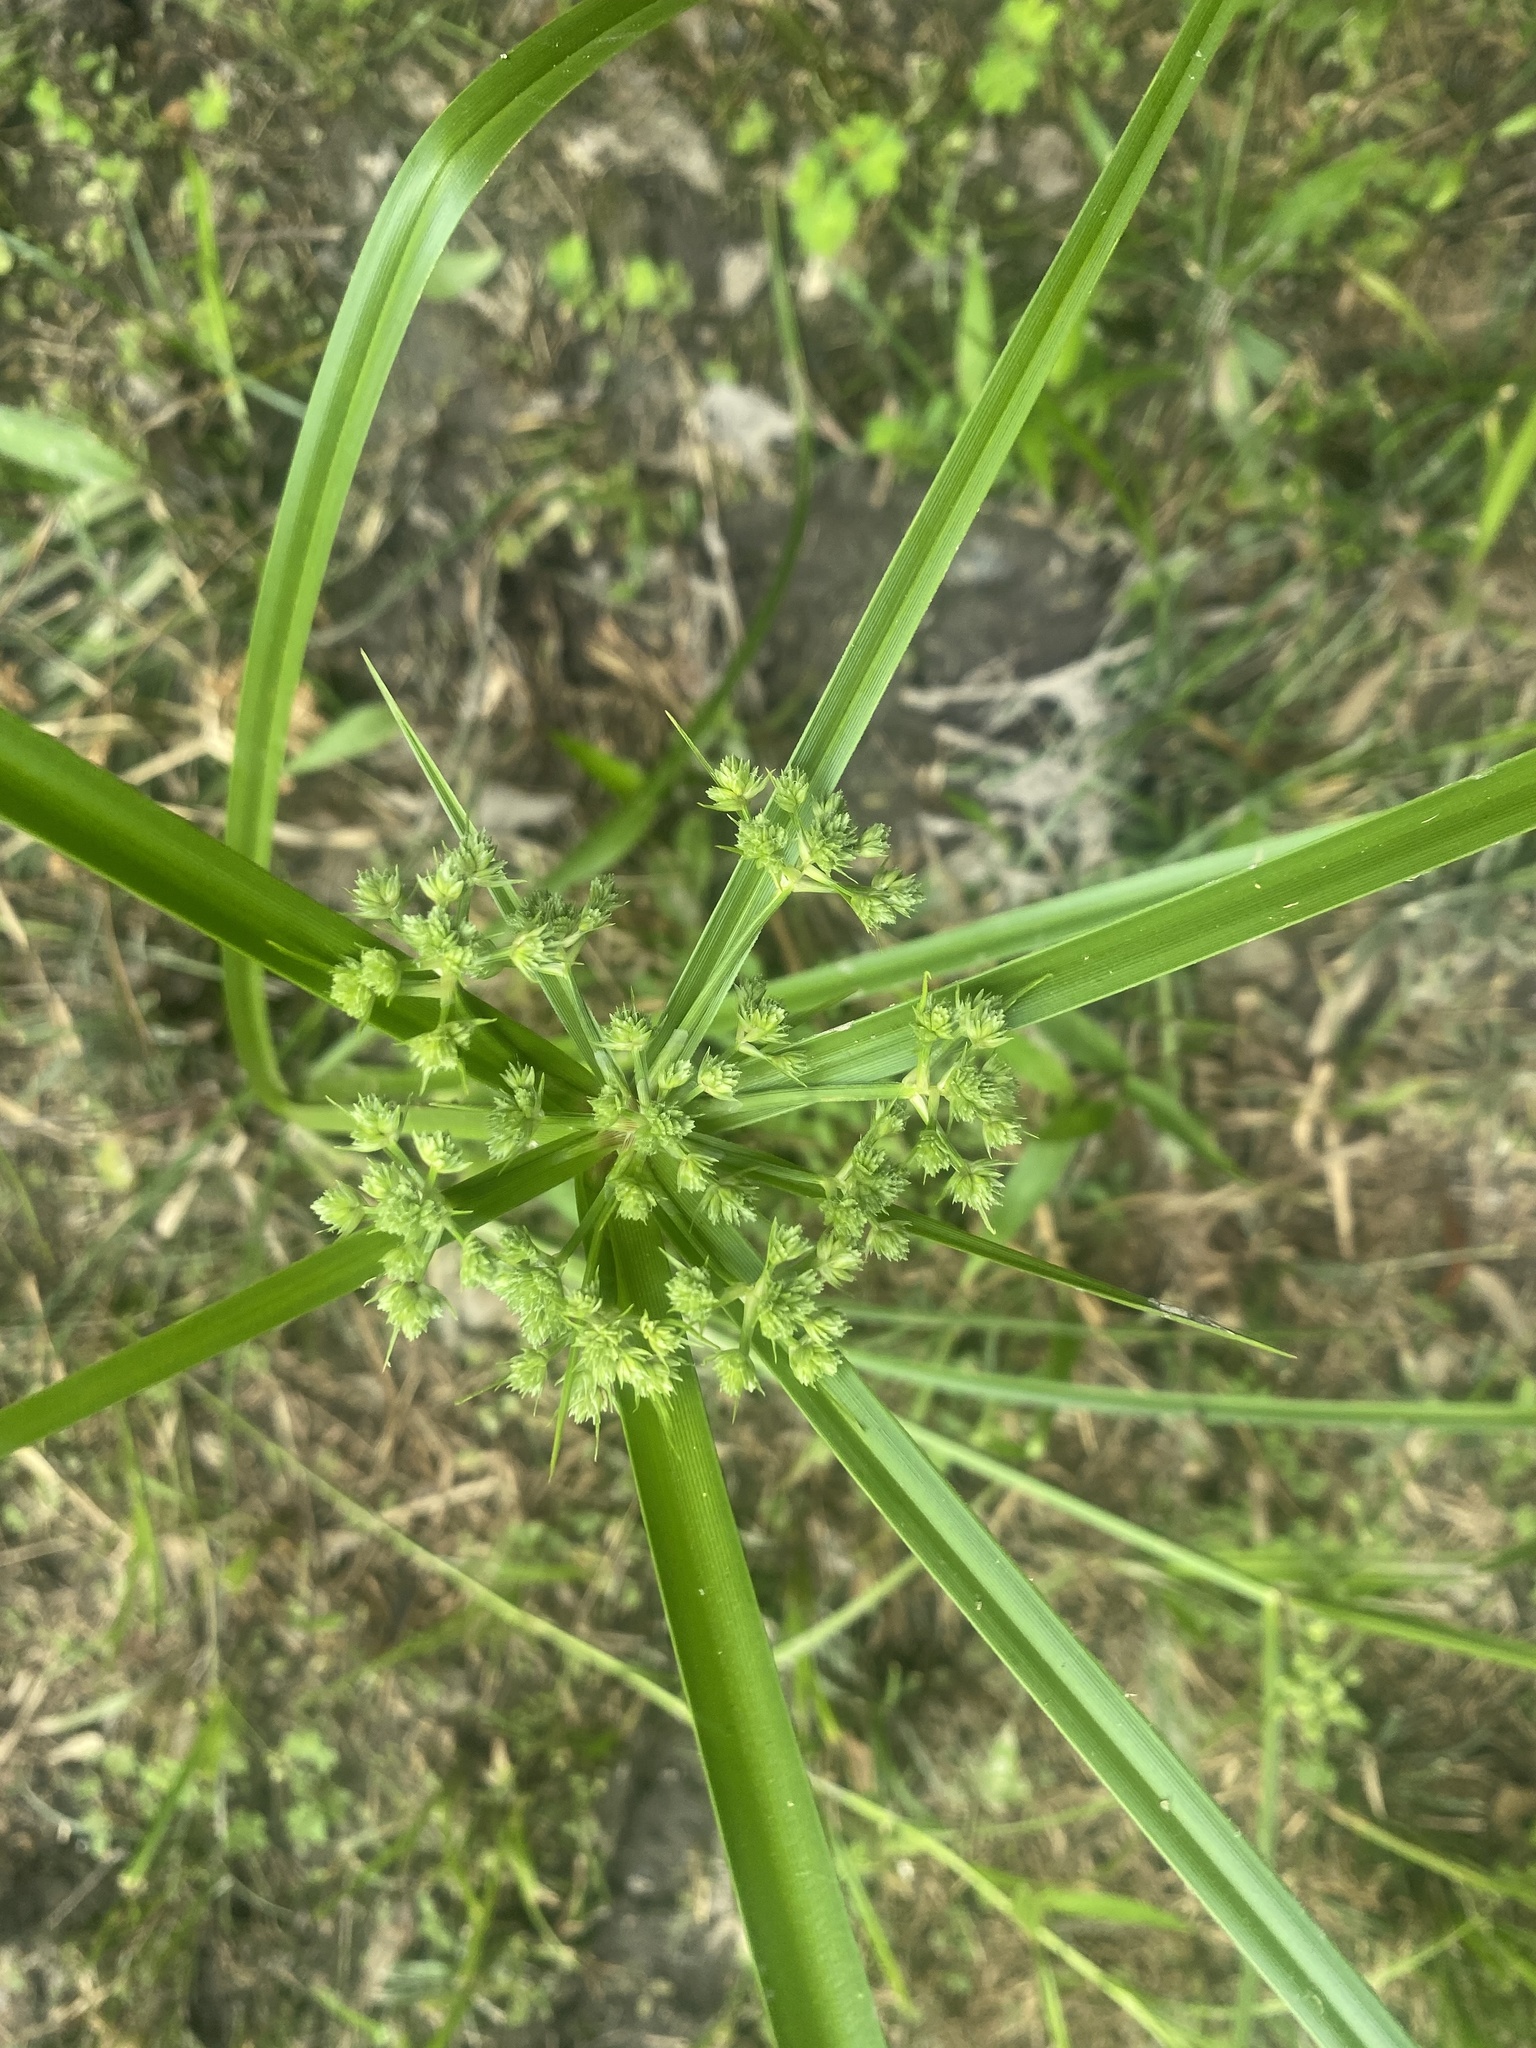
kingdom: Plantae
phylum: Tracheophyta
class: Liliopsida
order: Poales
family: Cyperaceae
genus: Cyperus
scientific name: Cyperus virens
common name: Green flatsedge
